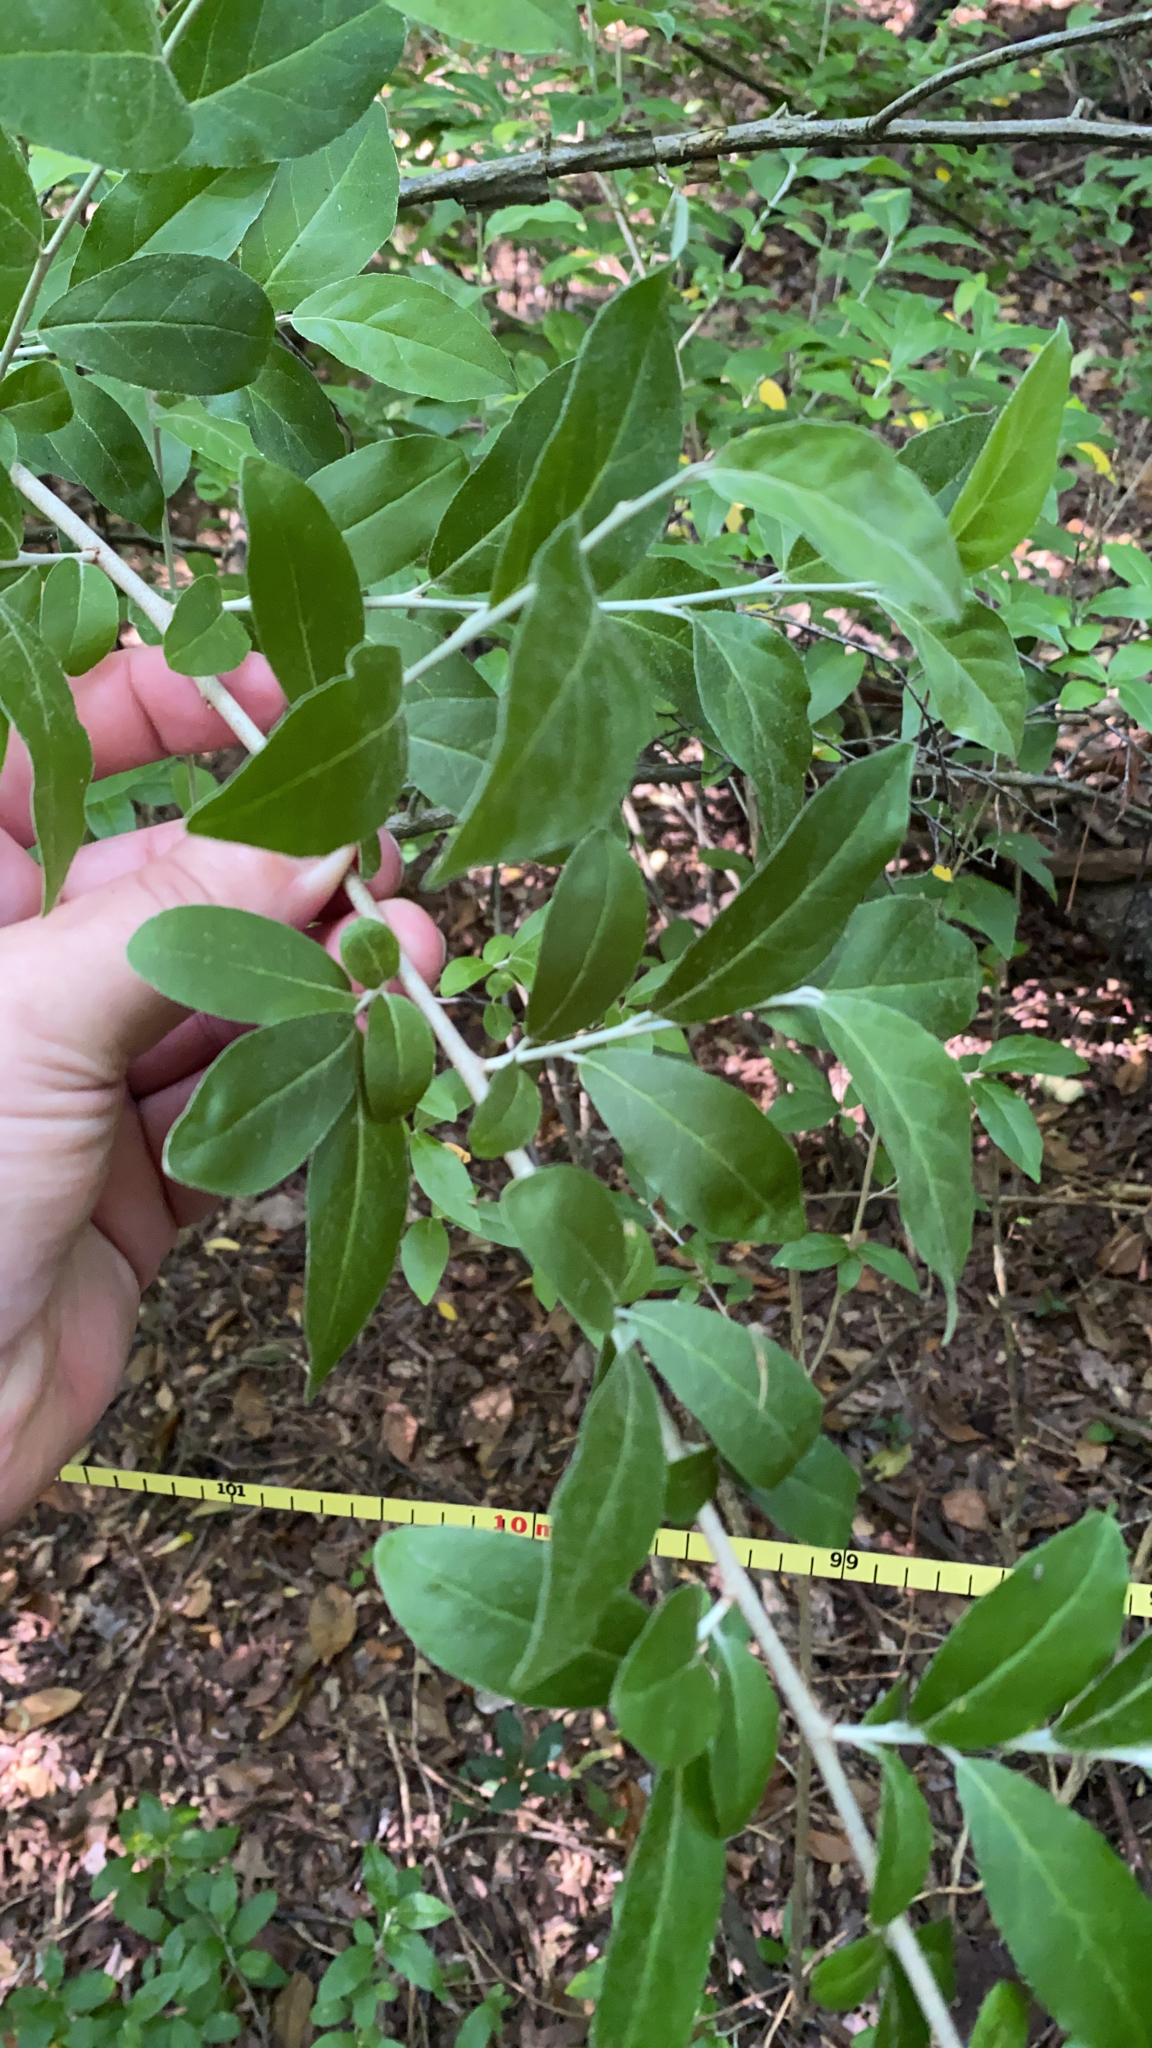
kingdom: Plantae
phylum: Tracheophyta
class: Magnoliopsida
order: Rosales
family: Elaeagnaceae
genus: Elaeagnus
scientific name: Elaeagnus umbellata
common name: Autumn olive
